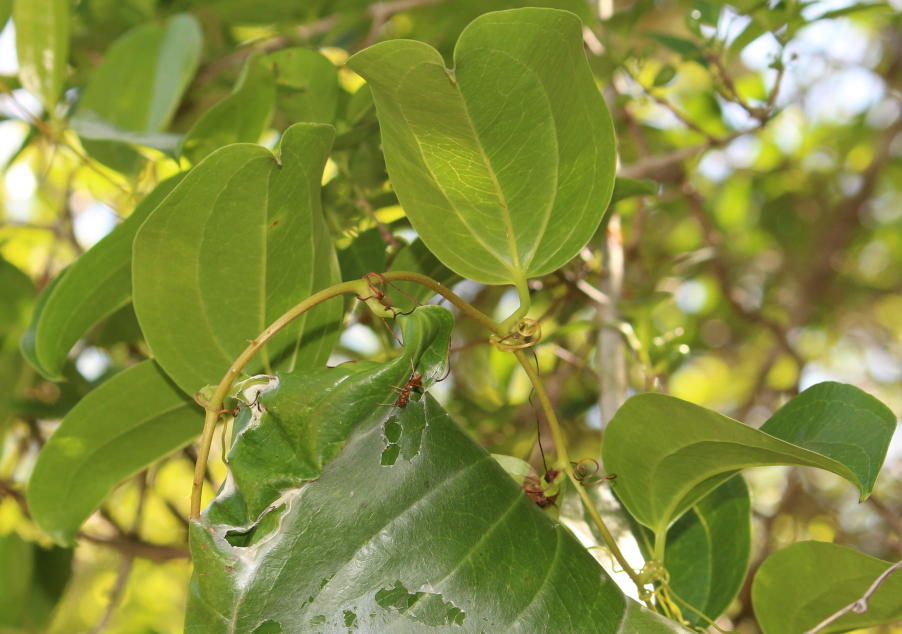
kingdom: Plantae
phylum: Tracheophyta
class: Liliopsida
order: Liliales
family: Smilacaceae
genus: Smilax
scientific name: Smilax anceps
